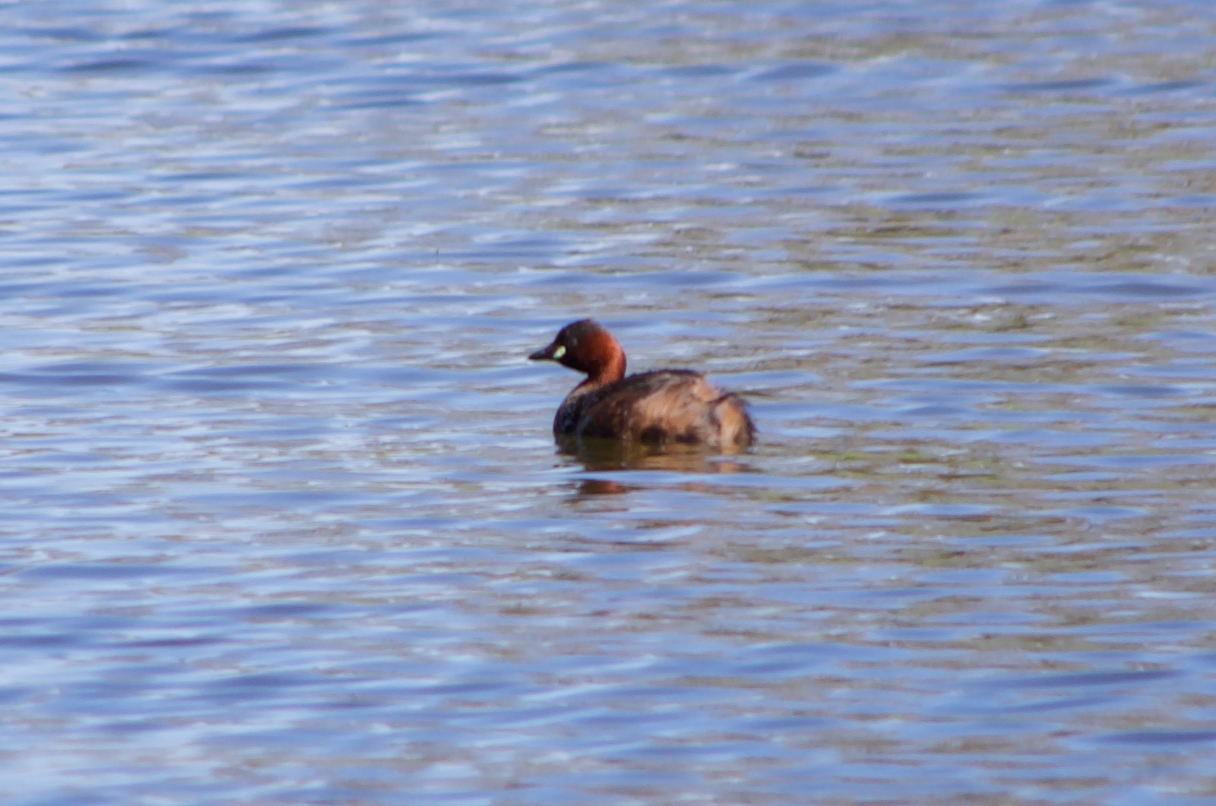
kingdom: Animalia
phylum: Chordata
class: Aves
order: Podicipediformes
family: Podicipedidae
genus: Tachybaptus
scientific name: Tachybaptus ruficollis
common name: Little grebe
